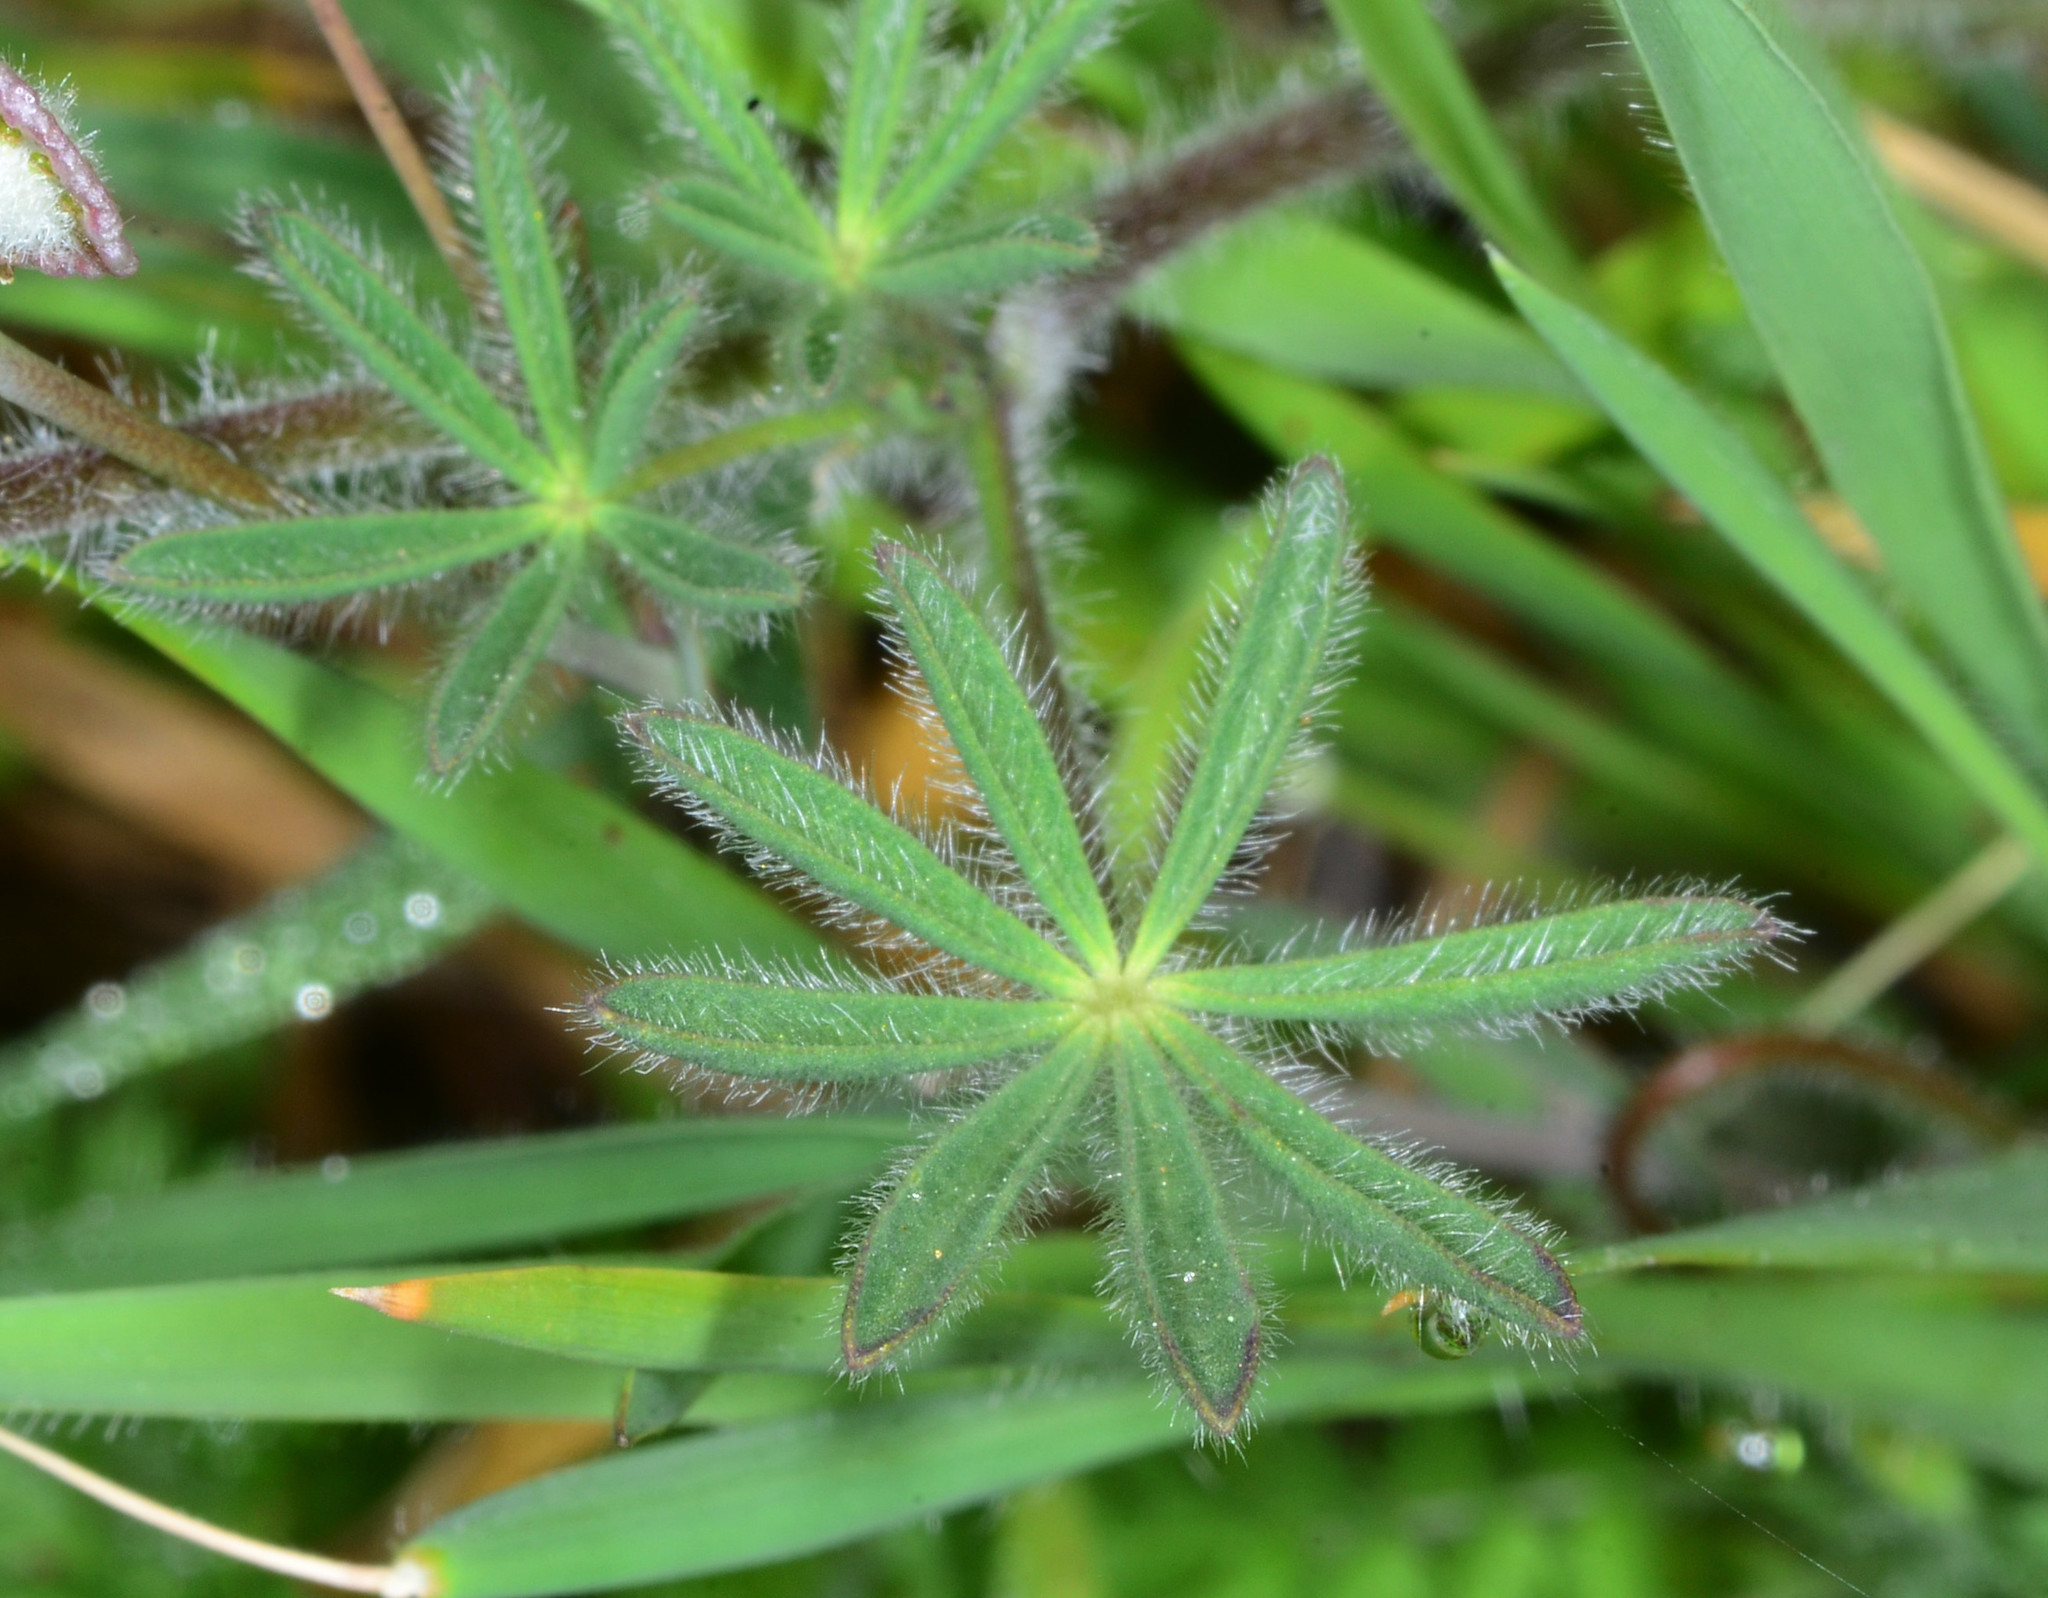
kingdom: Plantae
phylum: Tracheophyta
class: Magnoliopsida
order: Fabales
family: Fabaceae
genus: Lupinus
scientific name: Lupinus bicolor
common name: Miniature lupine
